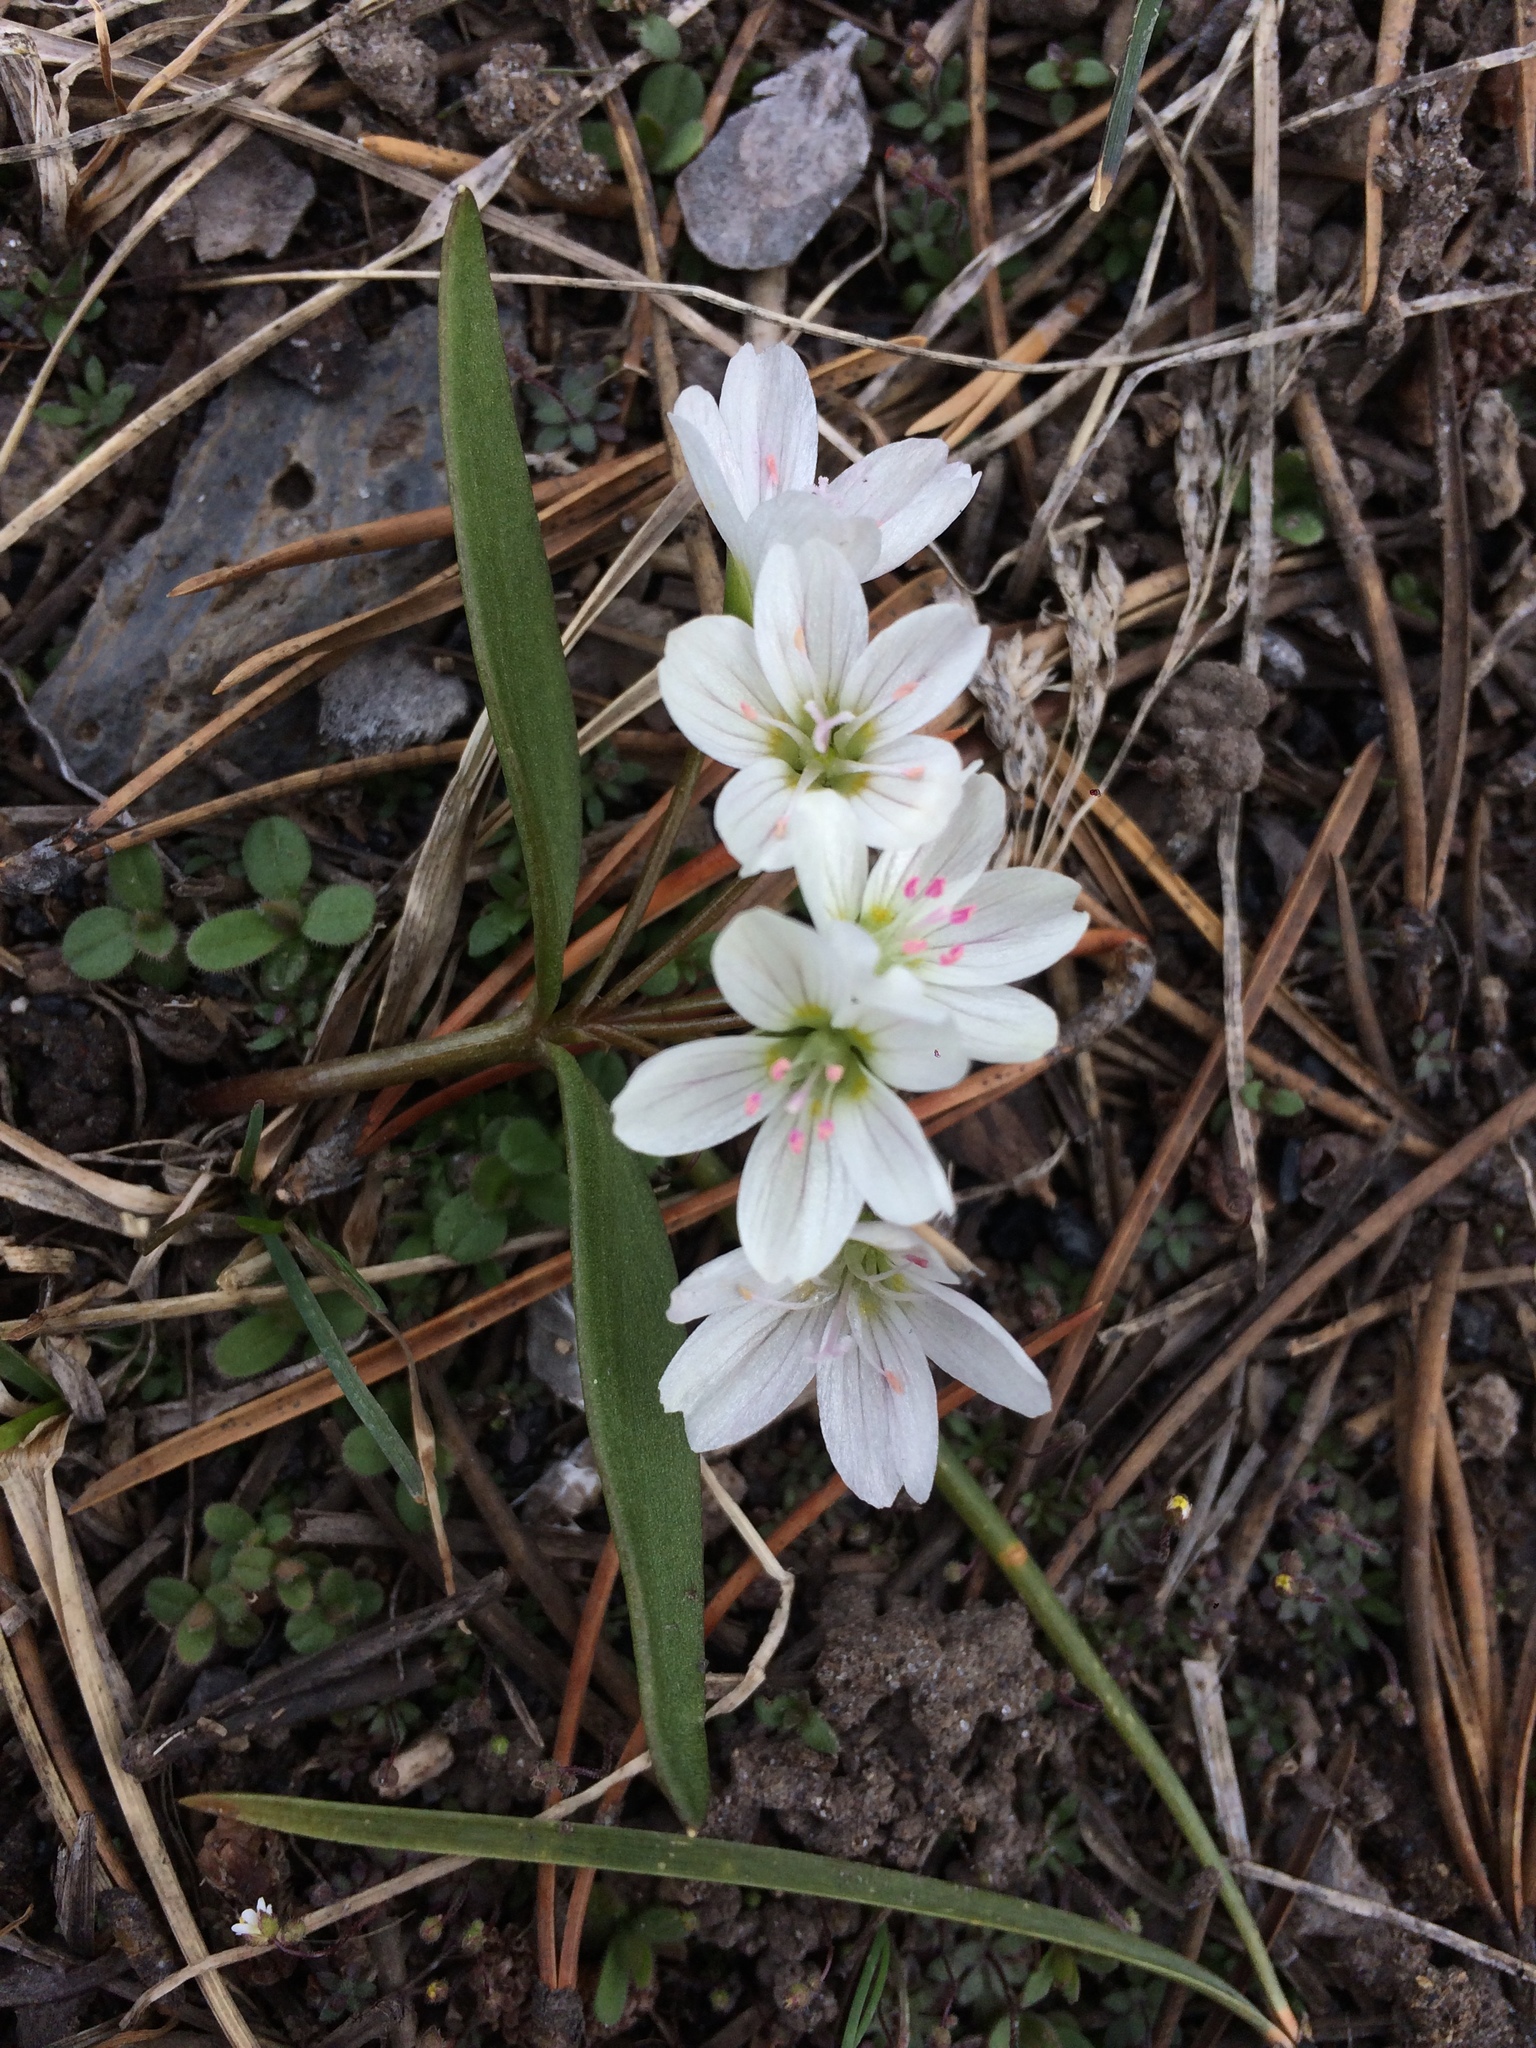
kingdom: Plantae
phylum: Tracheophyta
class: Magnoliopsida
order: Caryophyllales
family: Montiaceae
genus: Claytonia
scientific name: Claytonia lanceolata
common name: Western spring-beauty
